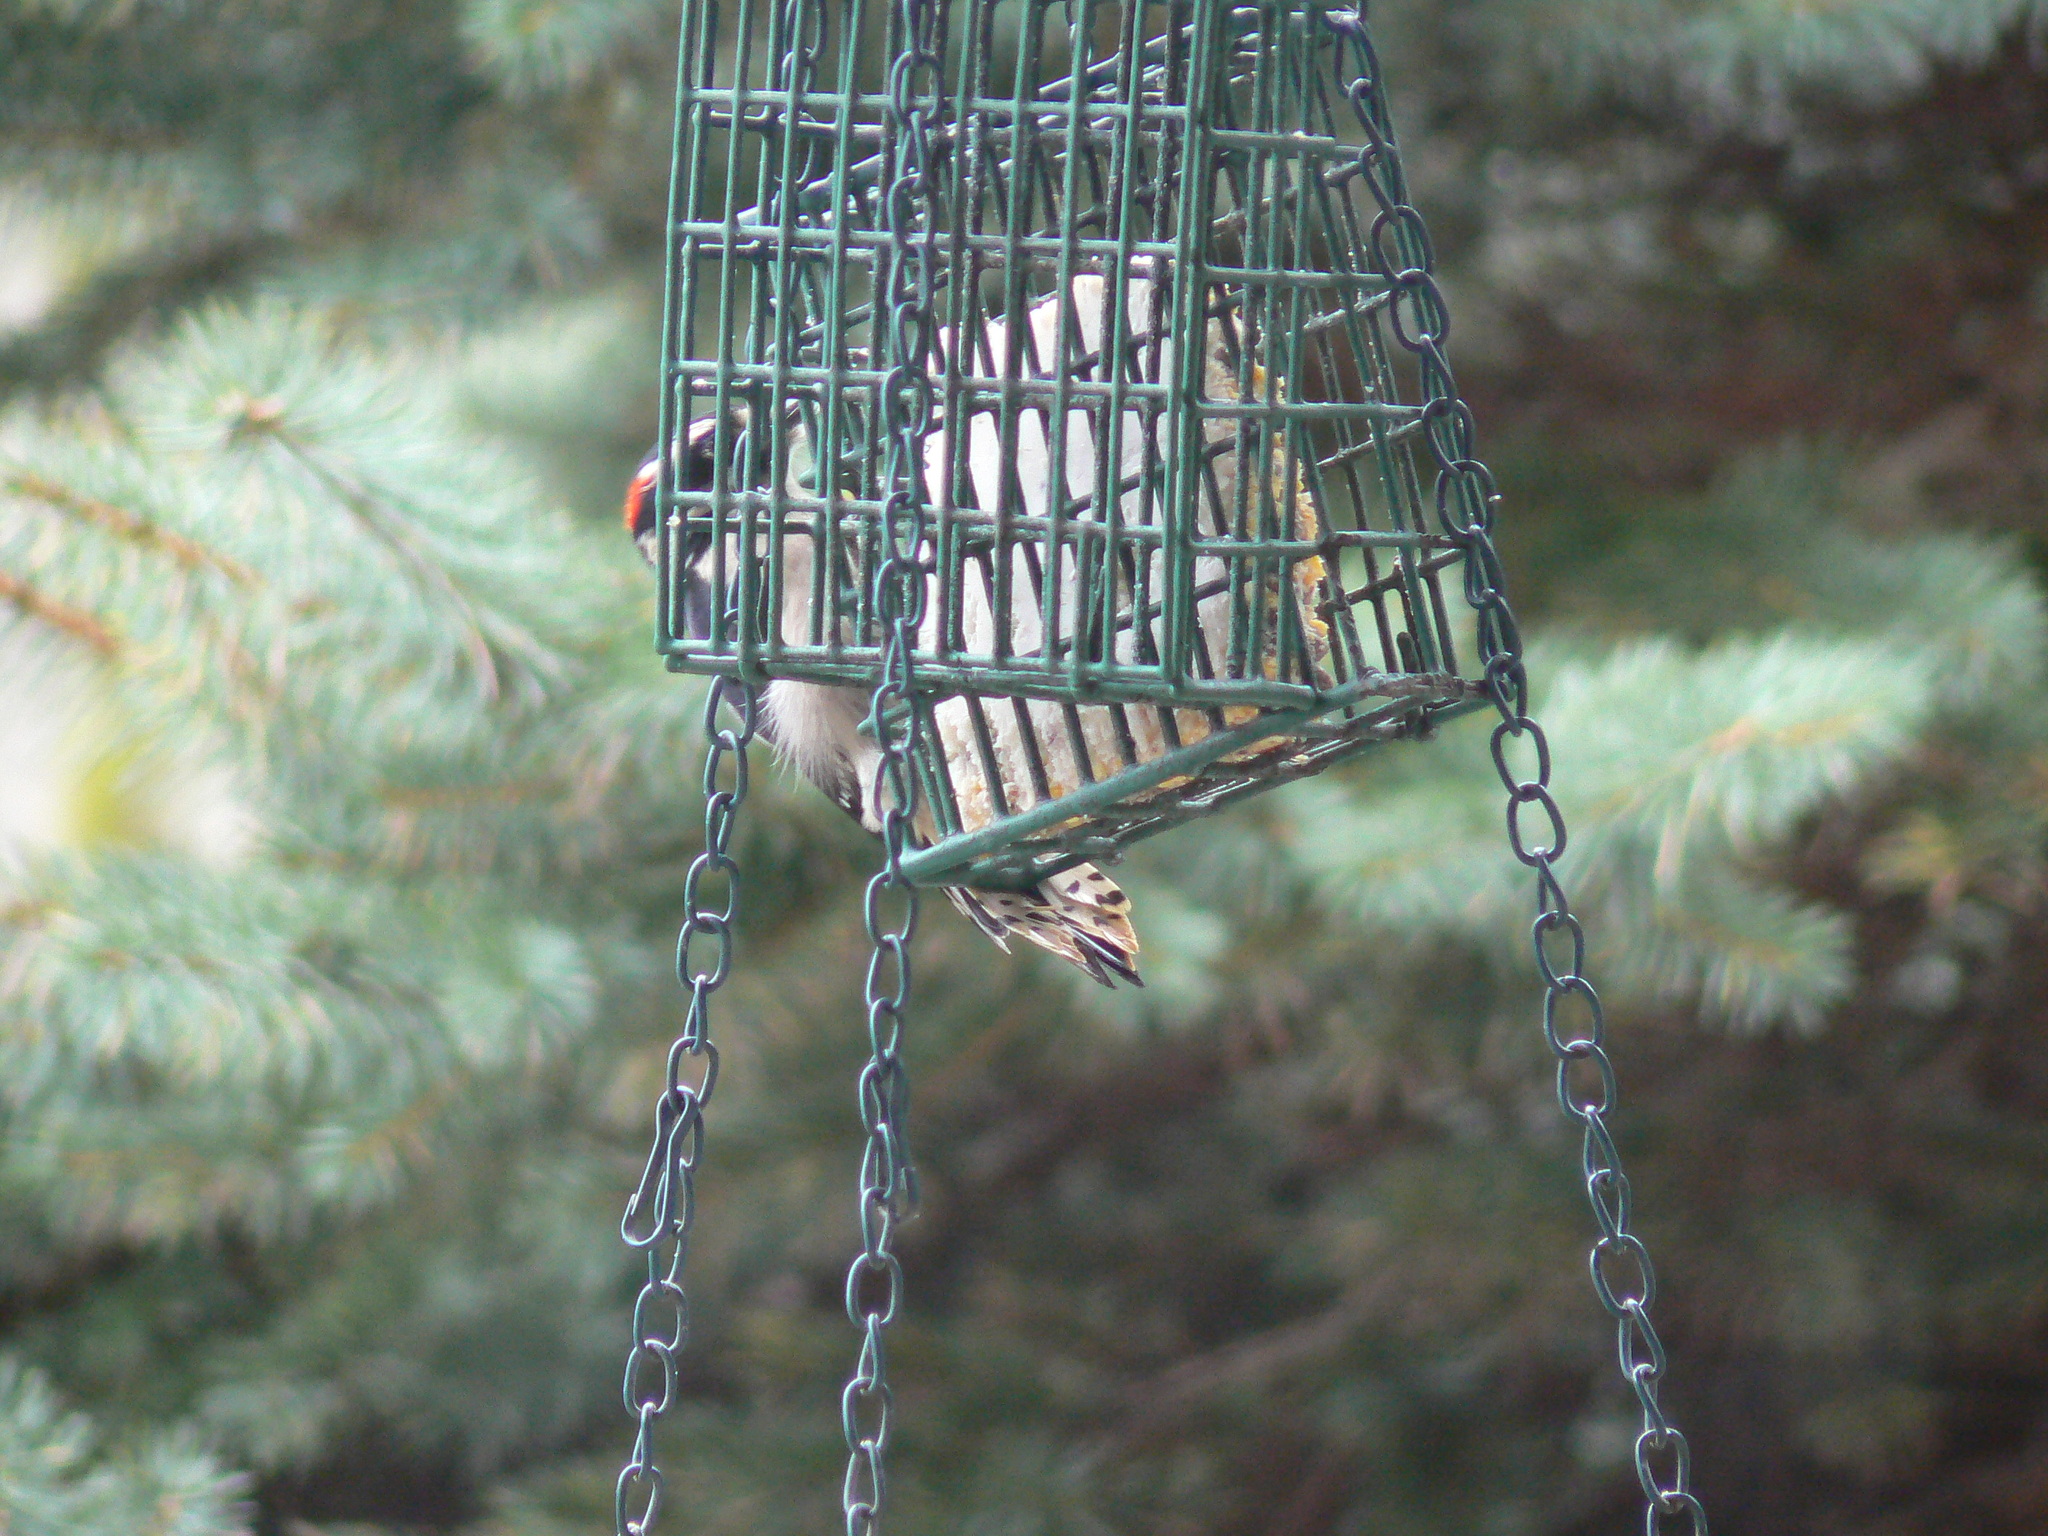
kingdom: Animalia
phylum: Chordata
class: Aves
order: Piciformes
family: Picidae
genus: Dryobates
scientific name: Dryobates pubescens
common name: Downy woodpecker
